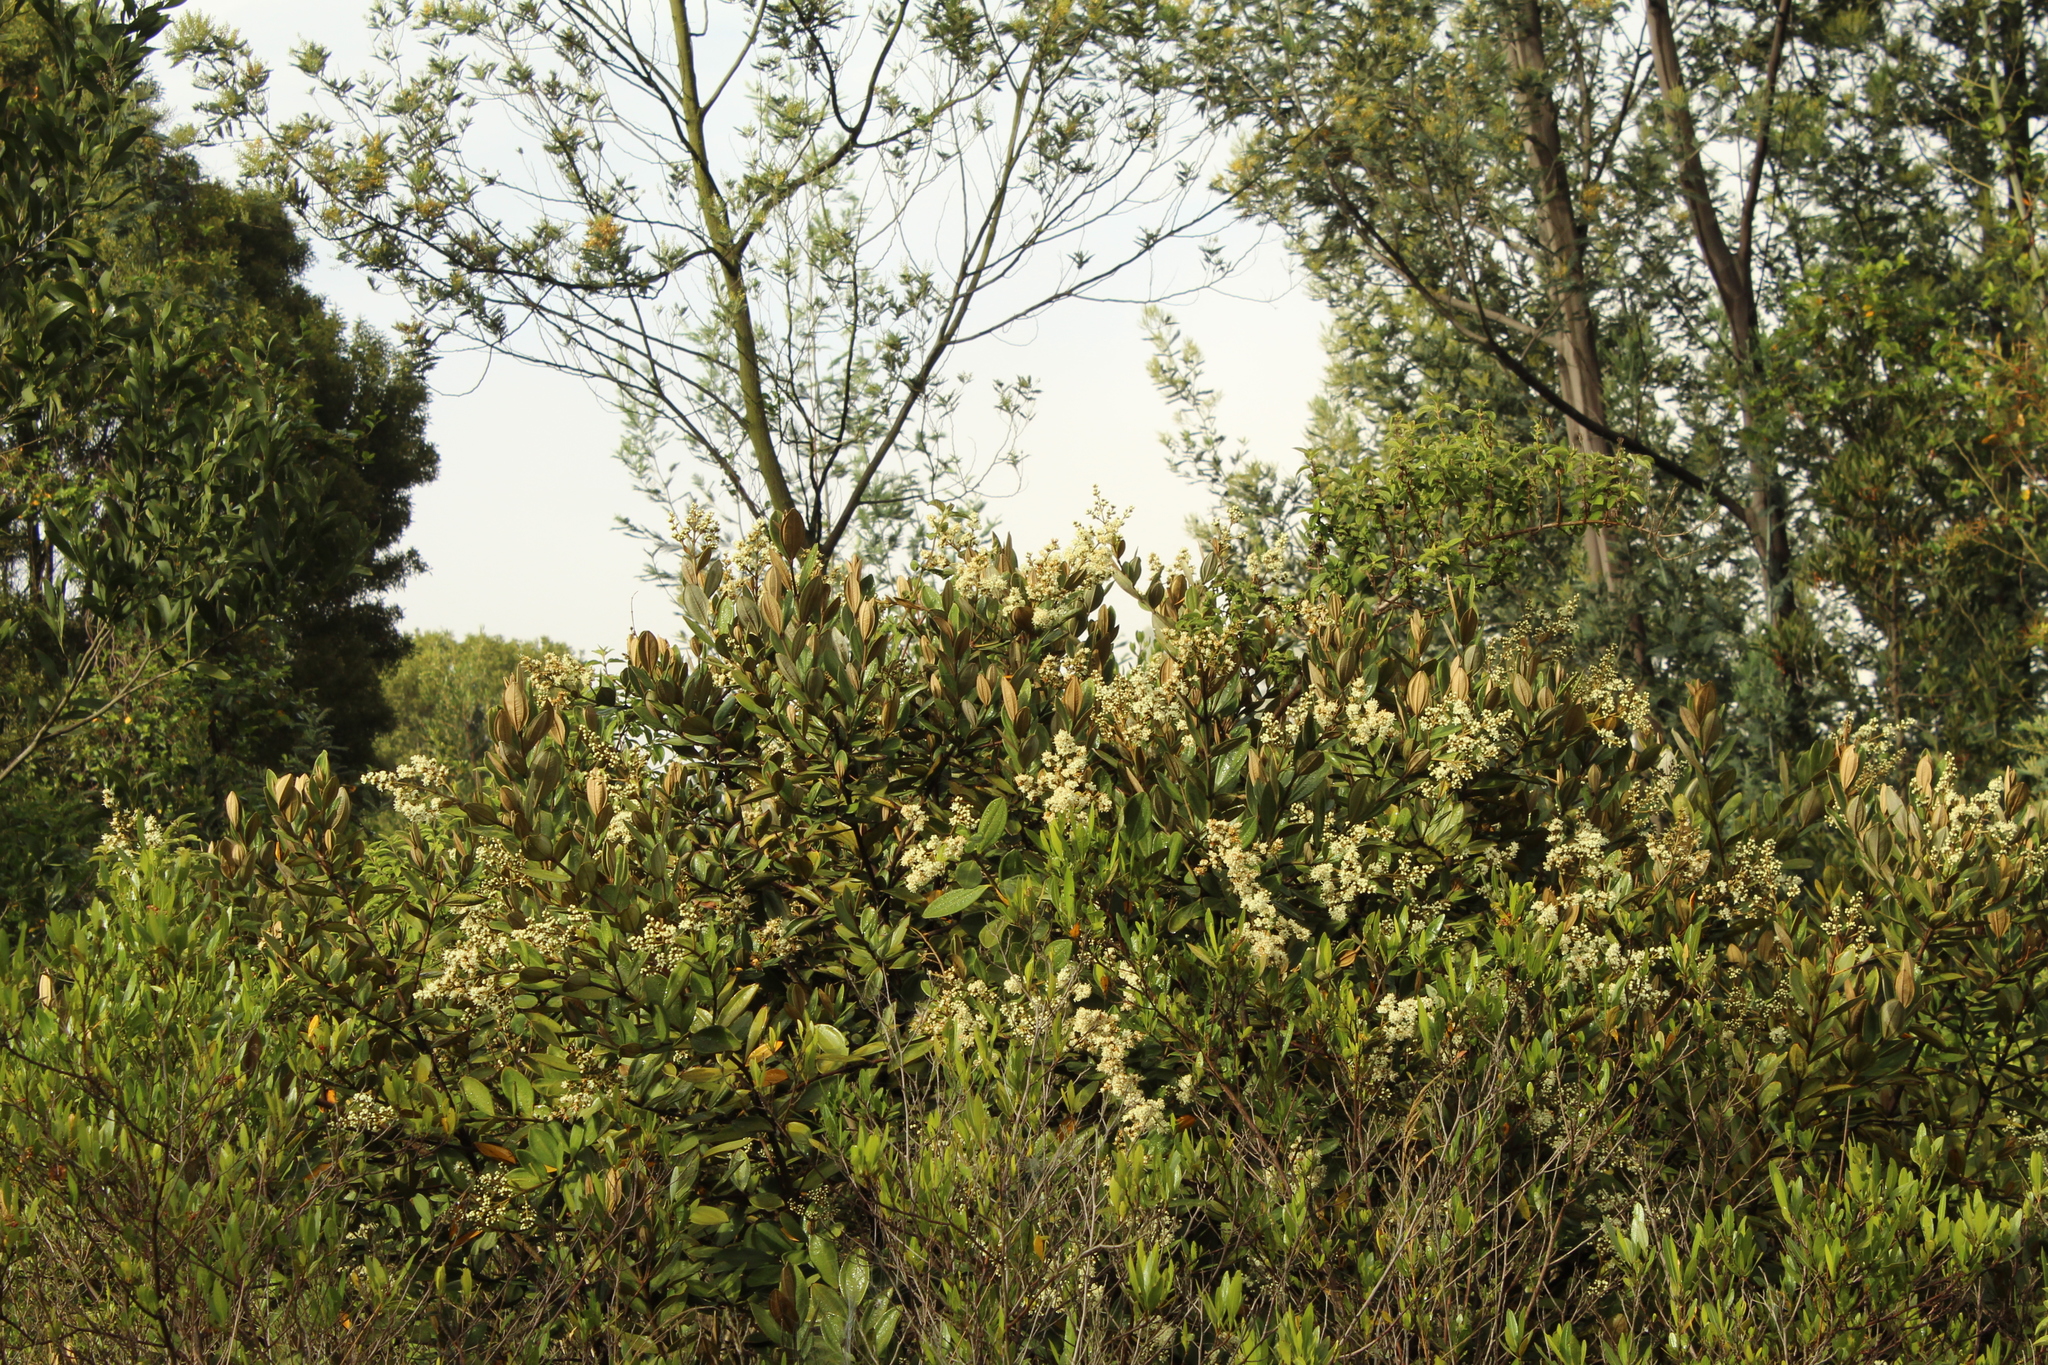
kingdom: Plantae
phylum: Tracheophyta
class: Magnoliopsida
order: Myrtales
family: Melastomataceae
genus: Miconia
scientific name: Miconia squamulosa
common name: Squamulose maya
